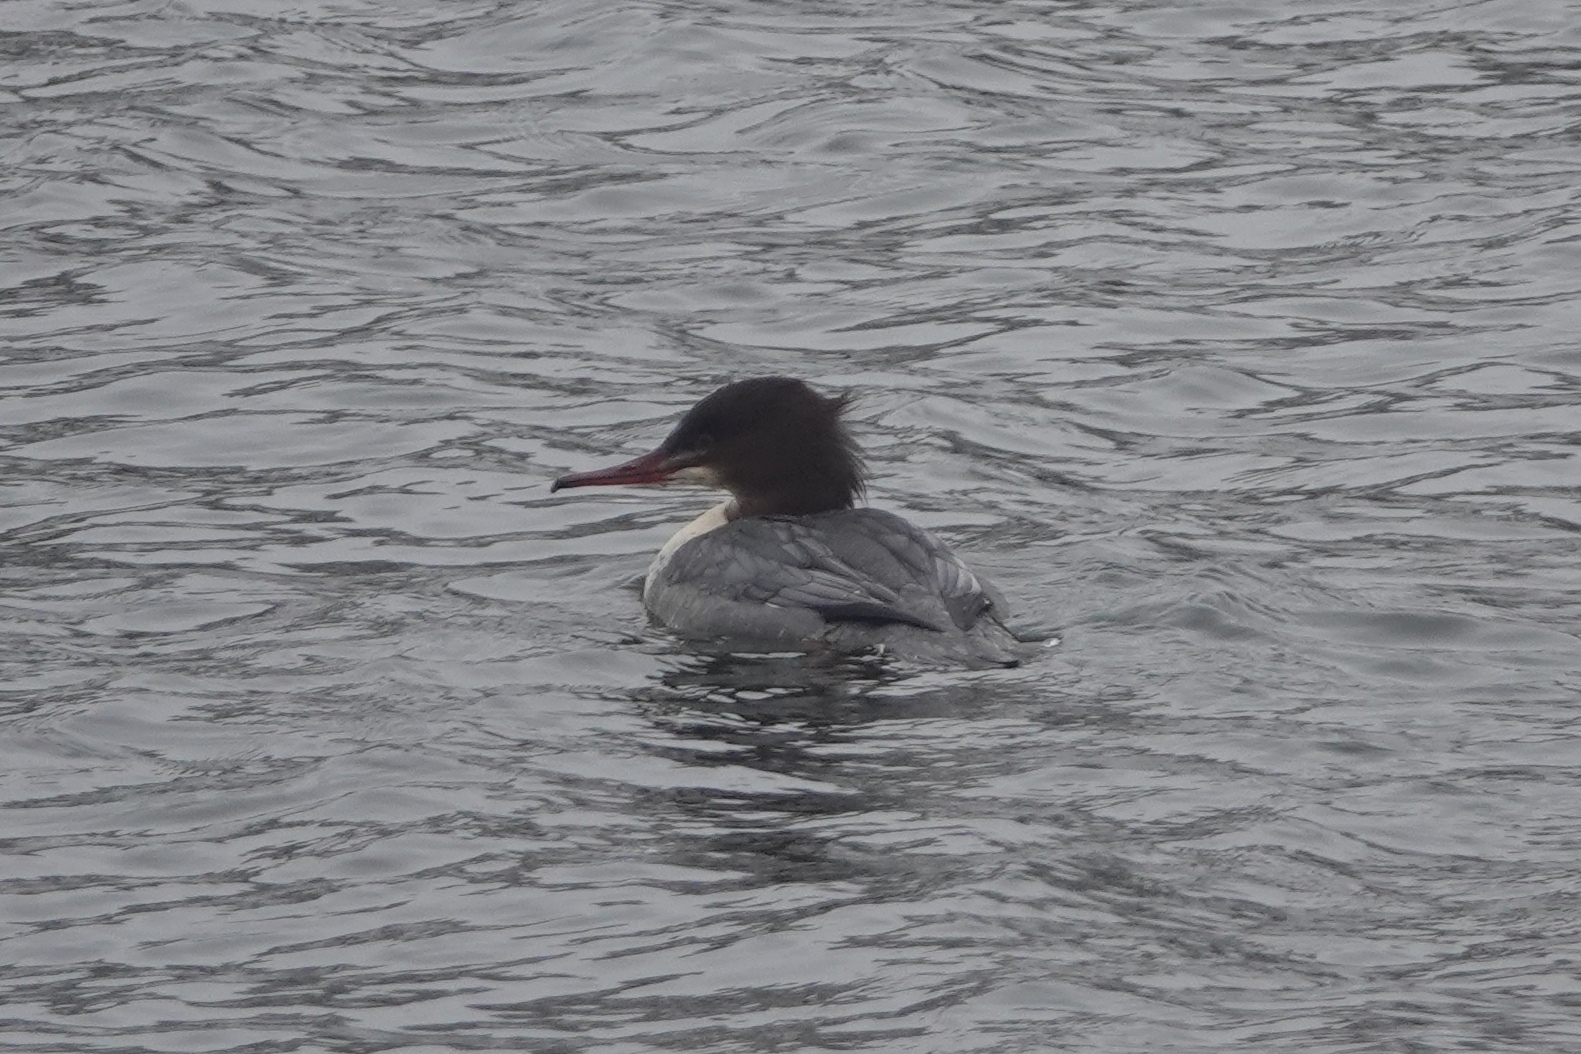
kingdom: Animalia
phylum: Chordata
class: Aves
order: Anseriformes
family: Anatidae
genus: Mergus
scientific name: Mergus merganser
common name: Common merganser
